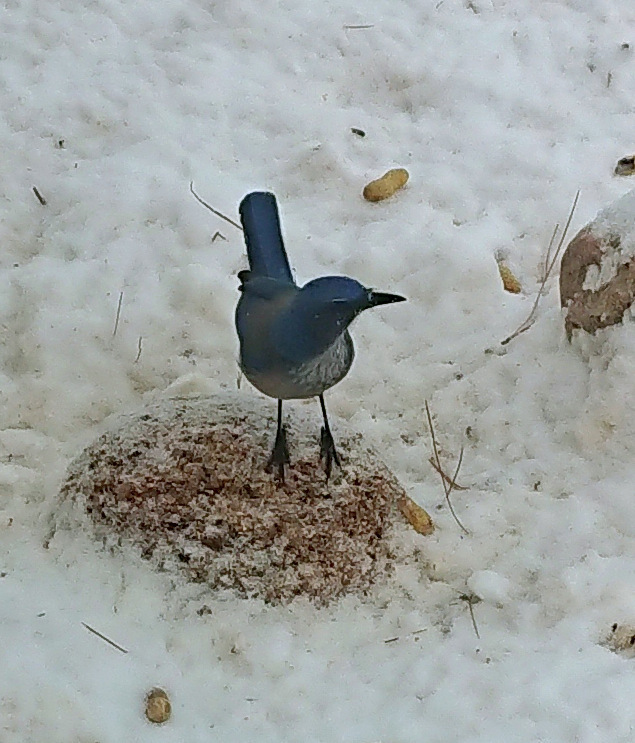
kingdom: Animalia
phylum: Chordata
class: Aves
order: Passeriformes
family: Corvidae
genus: Aphelocoma
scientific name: Aphelocoma woodhouseii
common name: Woodhouse's scrub-jay
